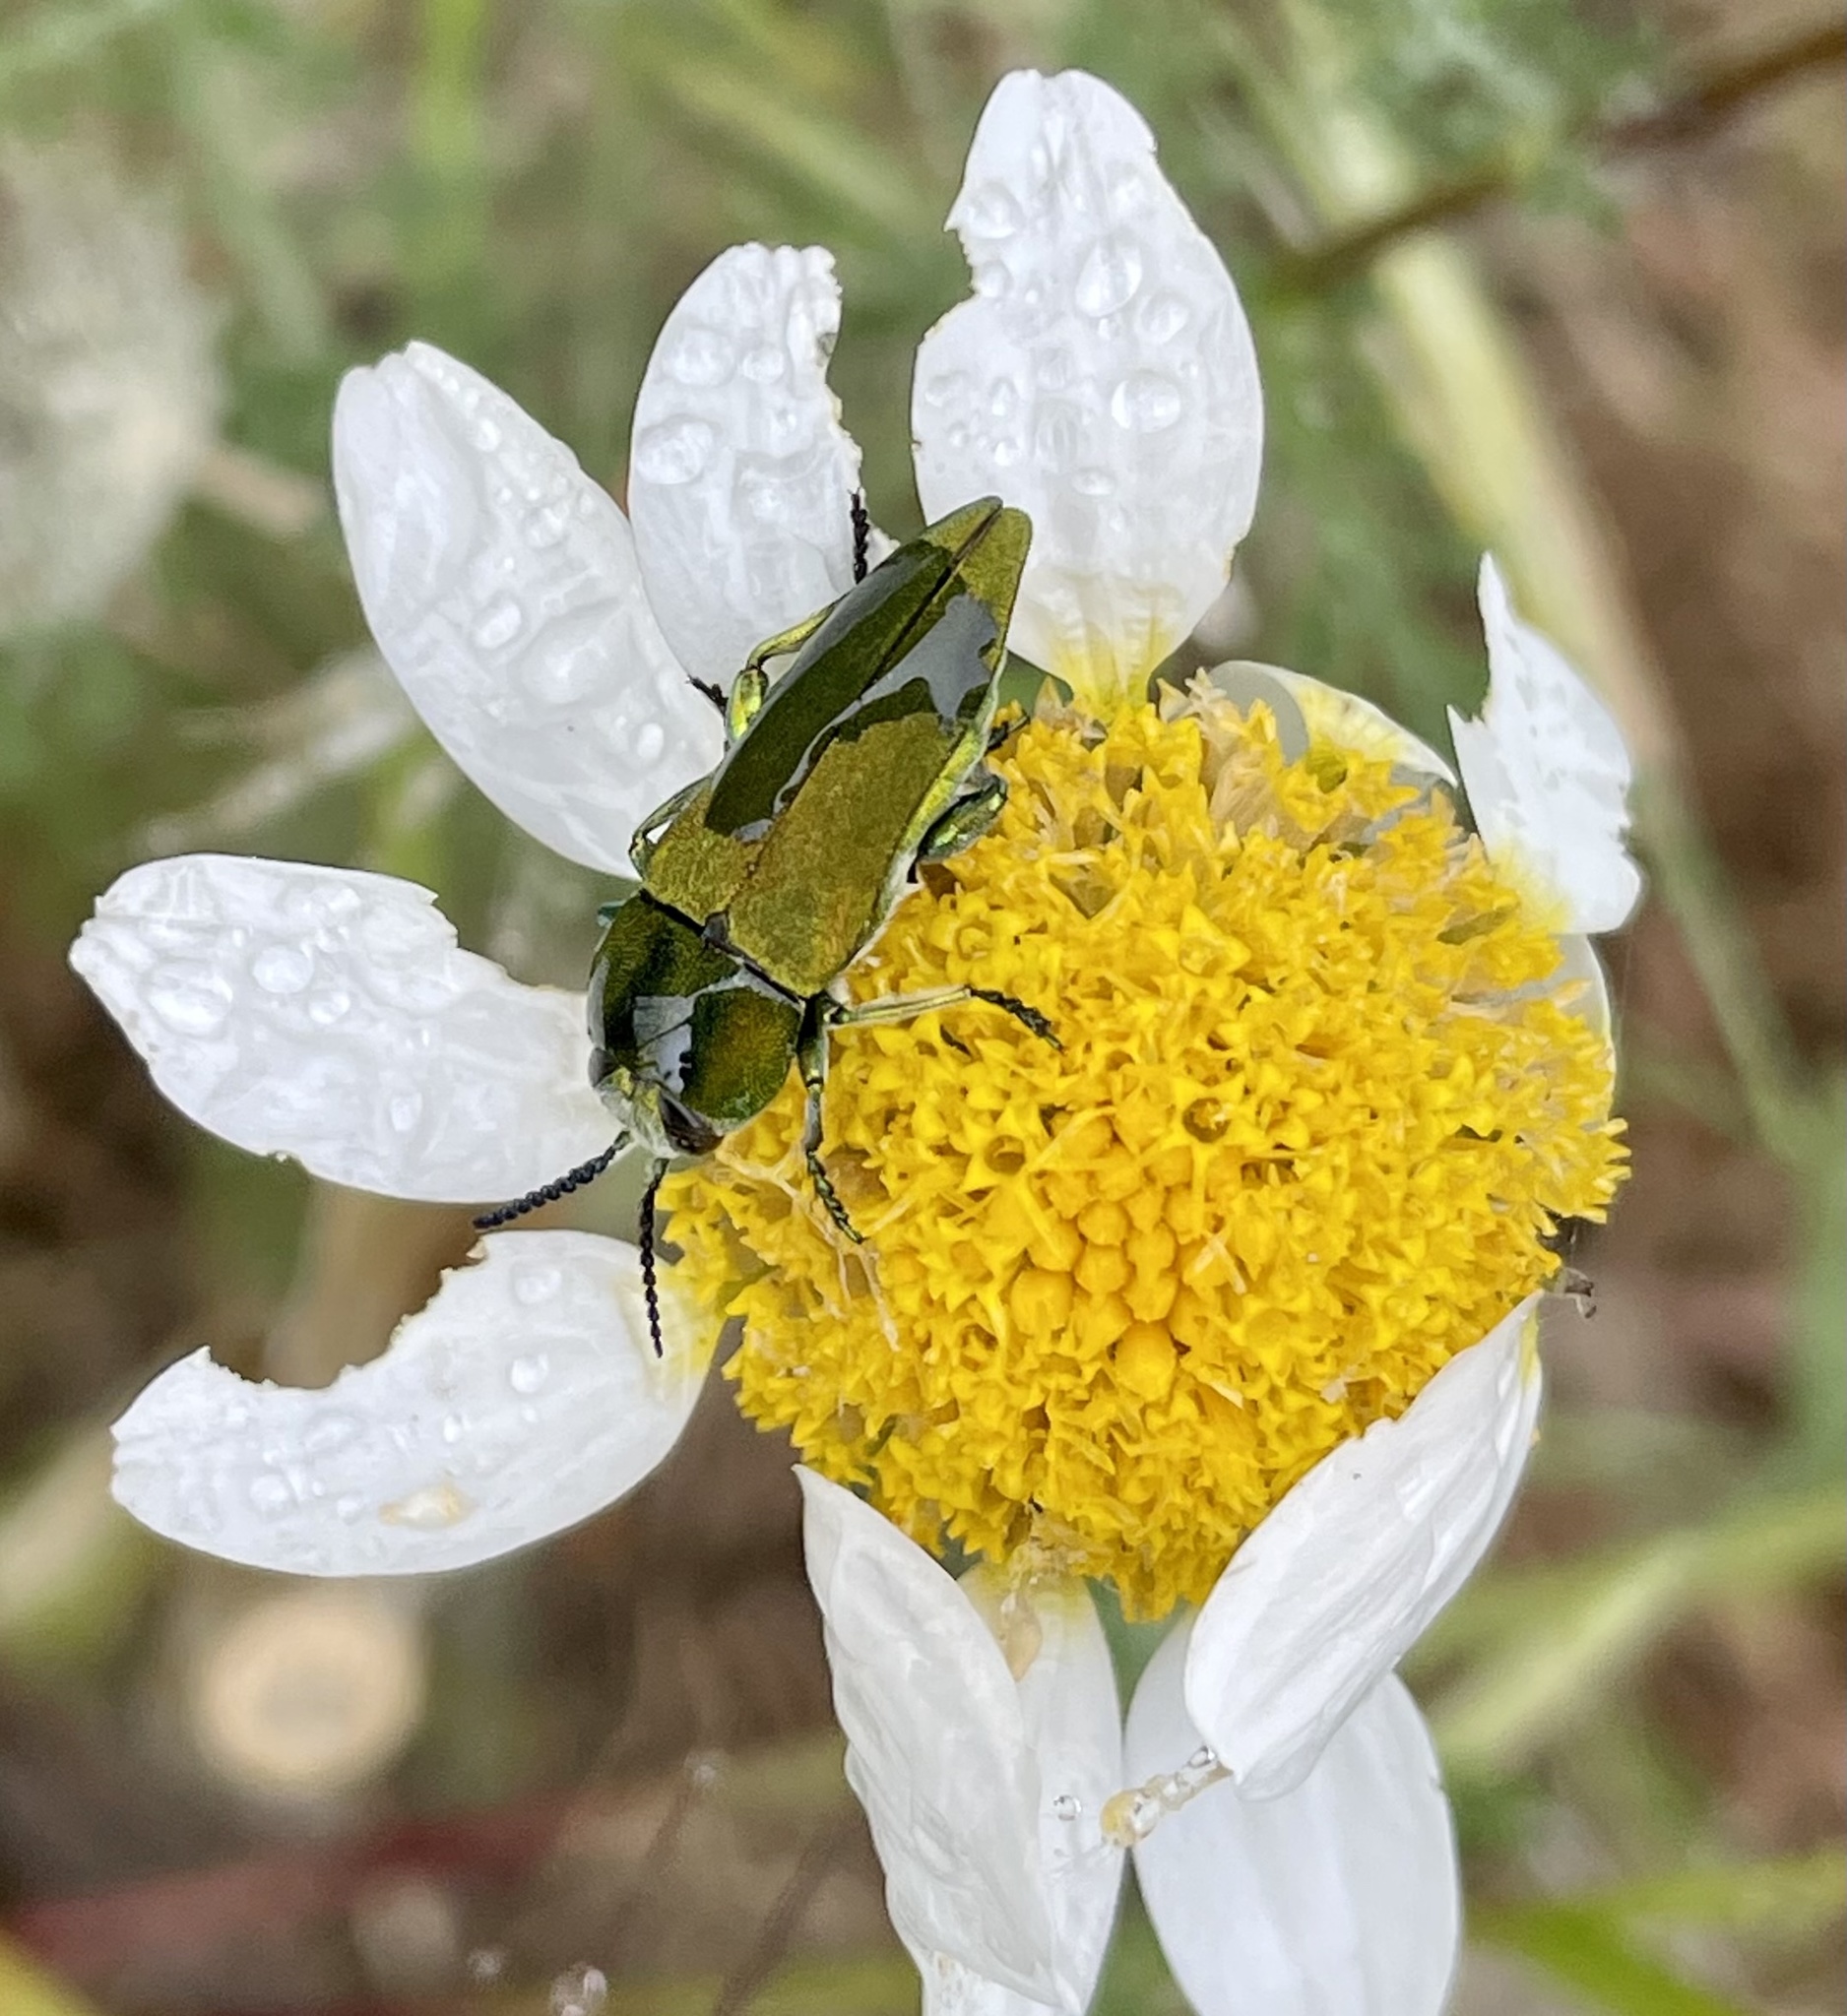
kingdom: Animalia
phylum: Arthropoda
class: Insecta
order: Coleoptera
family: Buprestidae
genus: Anthaxia
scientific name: Anthaxia hungarica
